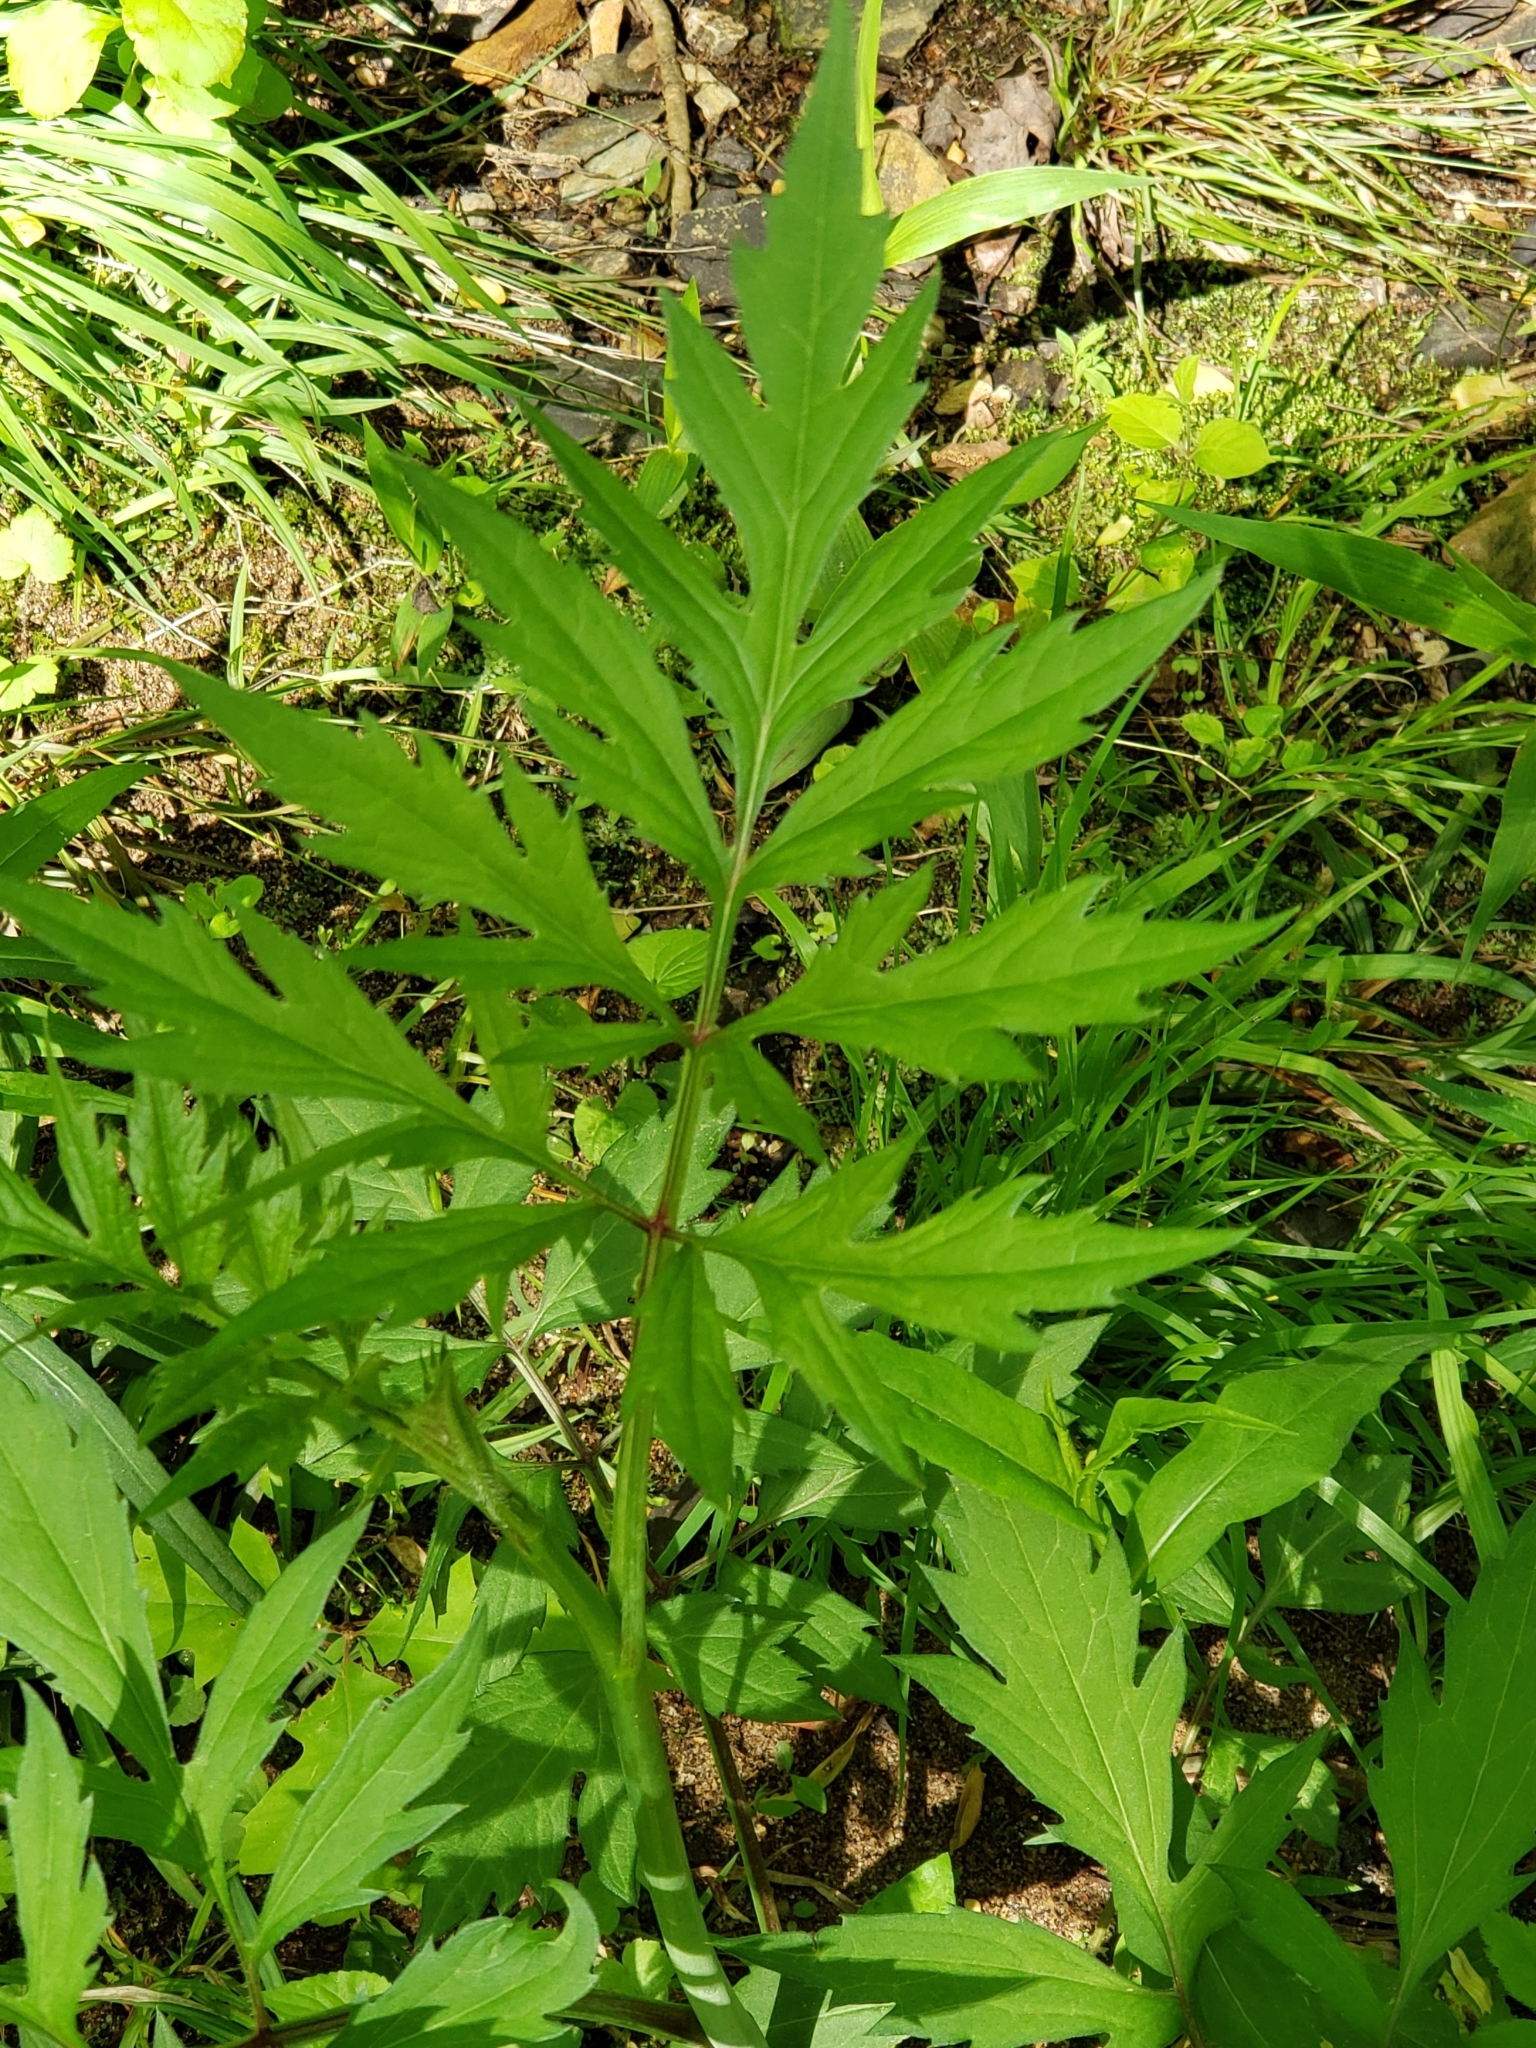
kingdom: Plantae
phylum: Tracheophyta
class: Magnoliopsida
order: Asterales
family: Asteraceae
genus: Rudbeckia
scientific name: Rudbeckia laciniata
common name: Coneflower
